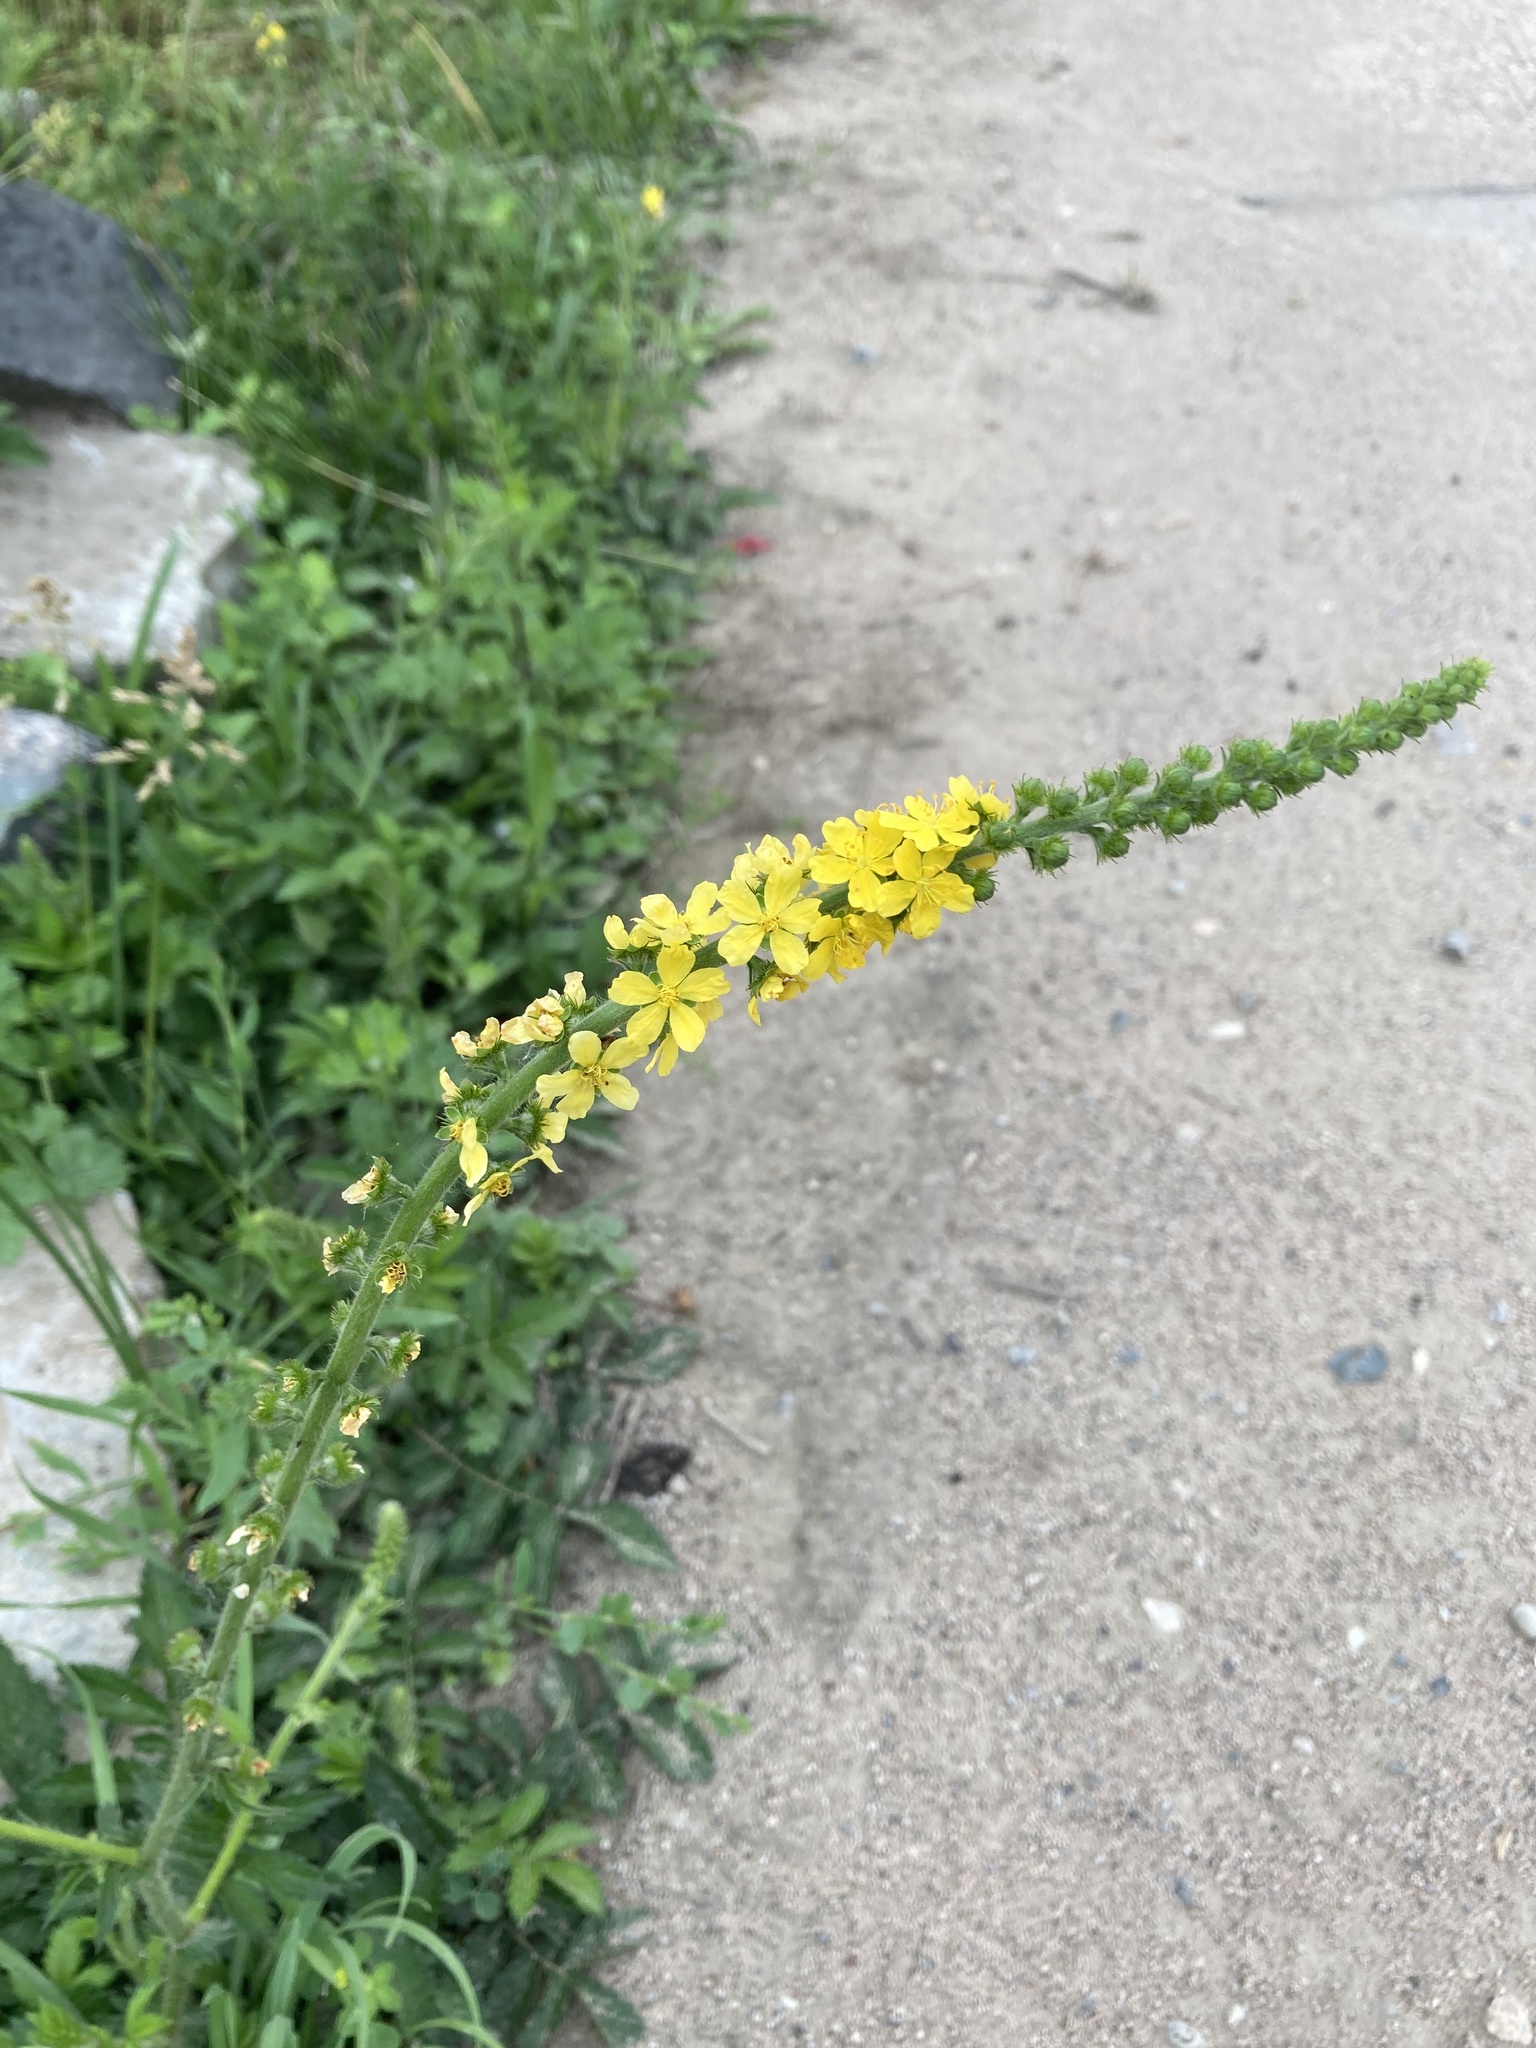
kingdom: Plantae
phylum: Tracheophyta
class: Magnoliopsida
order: Rosales
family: Rosaceae
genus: Agrimonia
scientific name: Agrimonia eupatoria
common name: Agrimony
